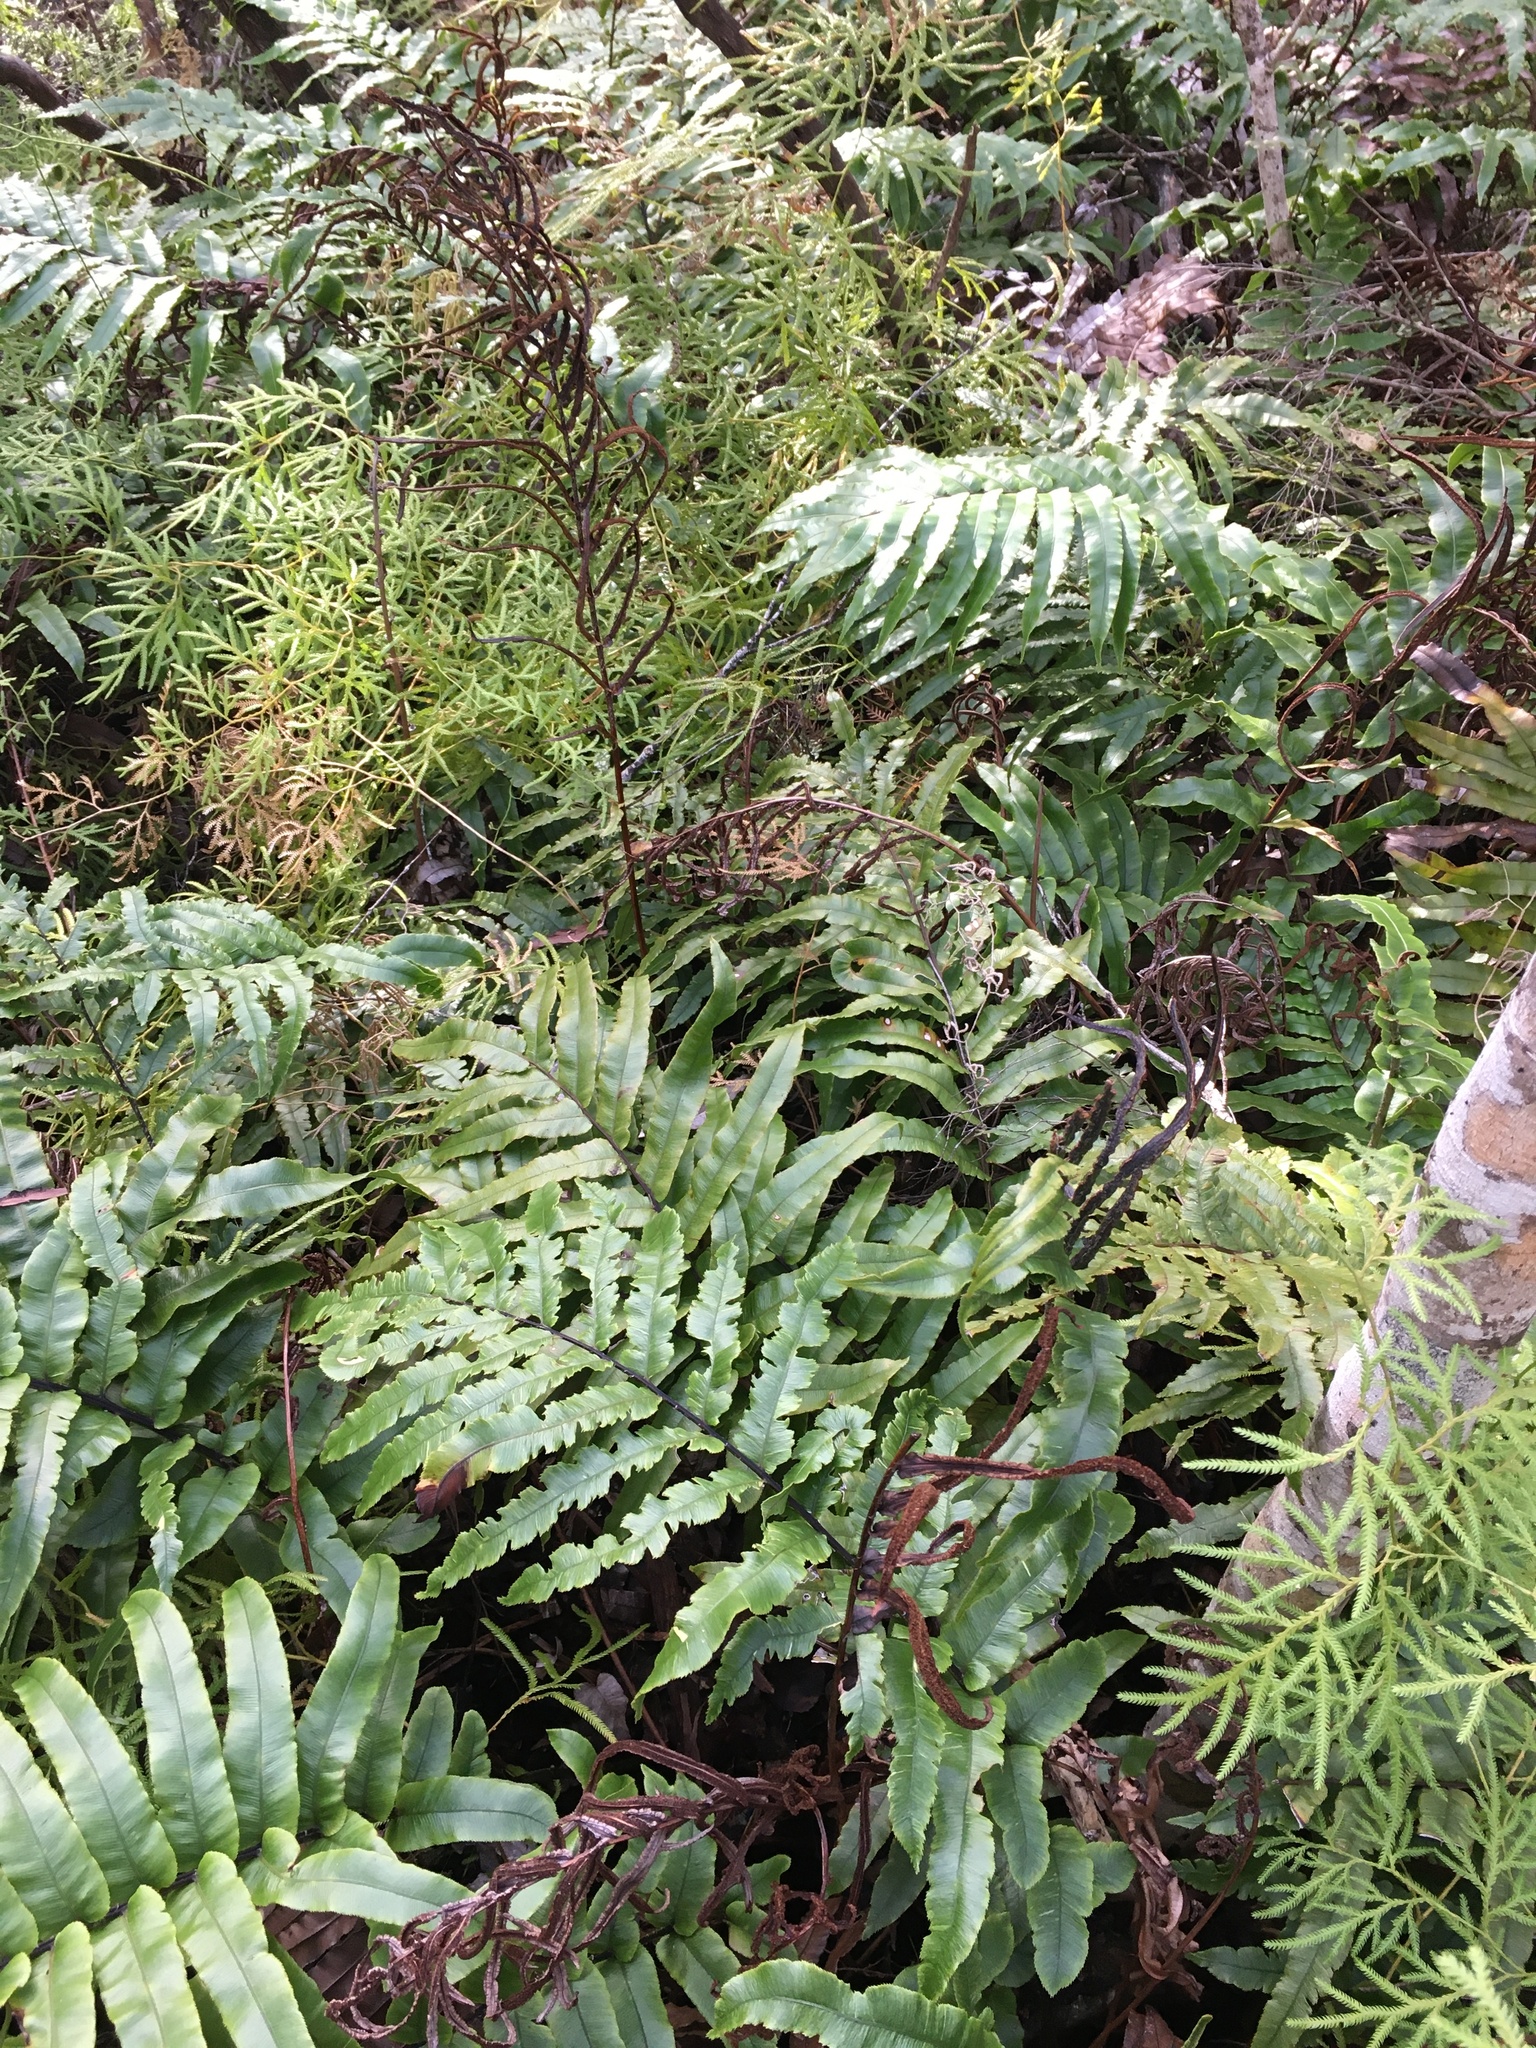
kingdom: Plantae
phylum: Tracheophyta
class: Polypodiopsida
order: Polypodiales
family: Blechnaceae
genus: Parablechnum
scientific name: Parablechnum procerum
